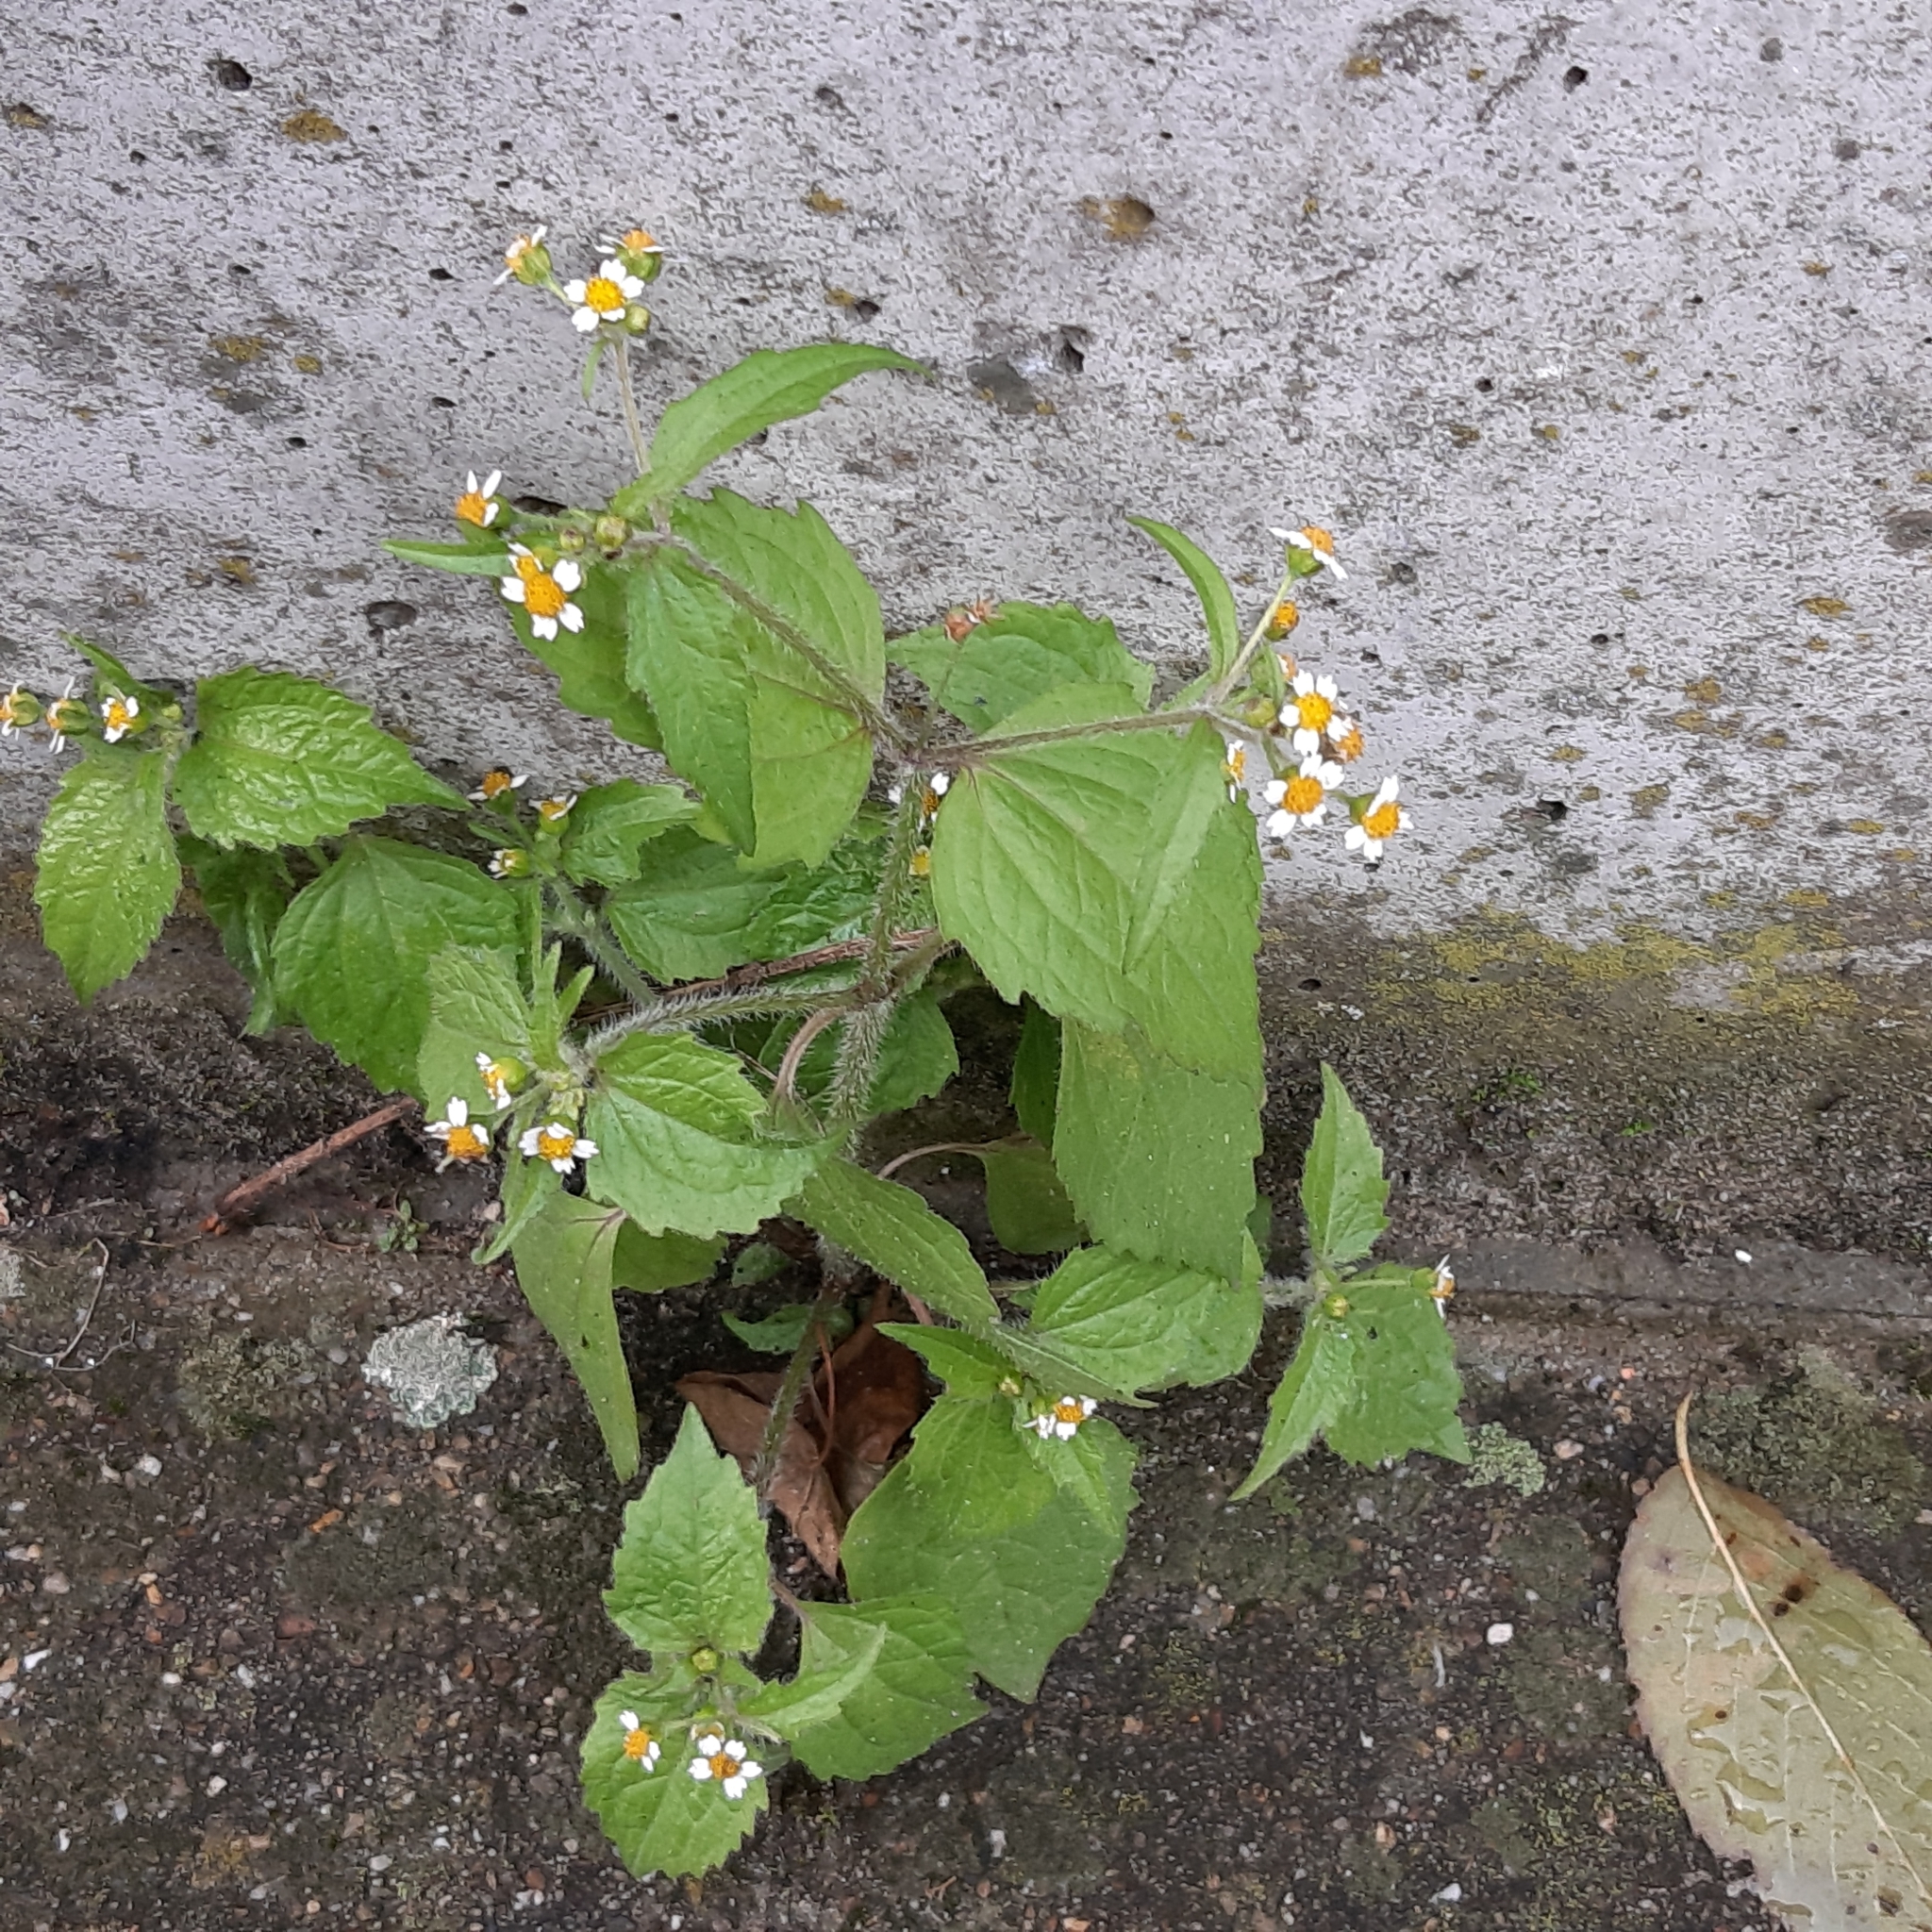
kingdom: Plantae
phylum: Tracheophyta
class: Magnoliopsida
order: Asterales
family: Asteraceae
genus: Galinsoga
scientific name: Galinsoga quadriradiata
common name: Shaggy soldier
